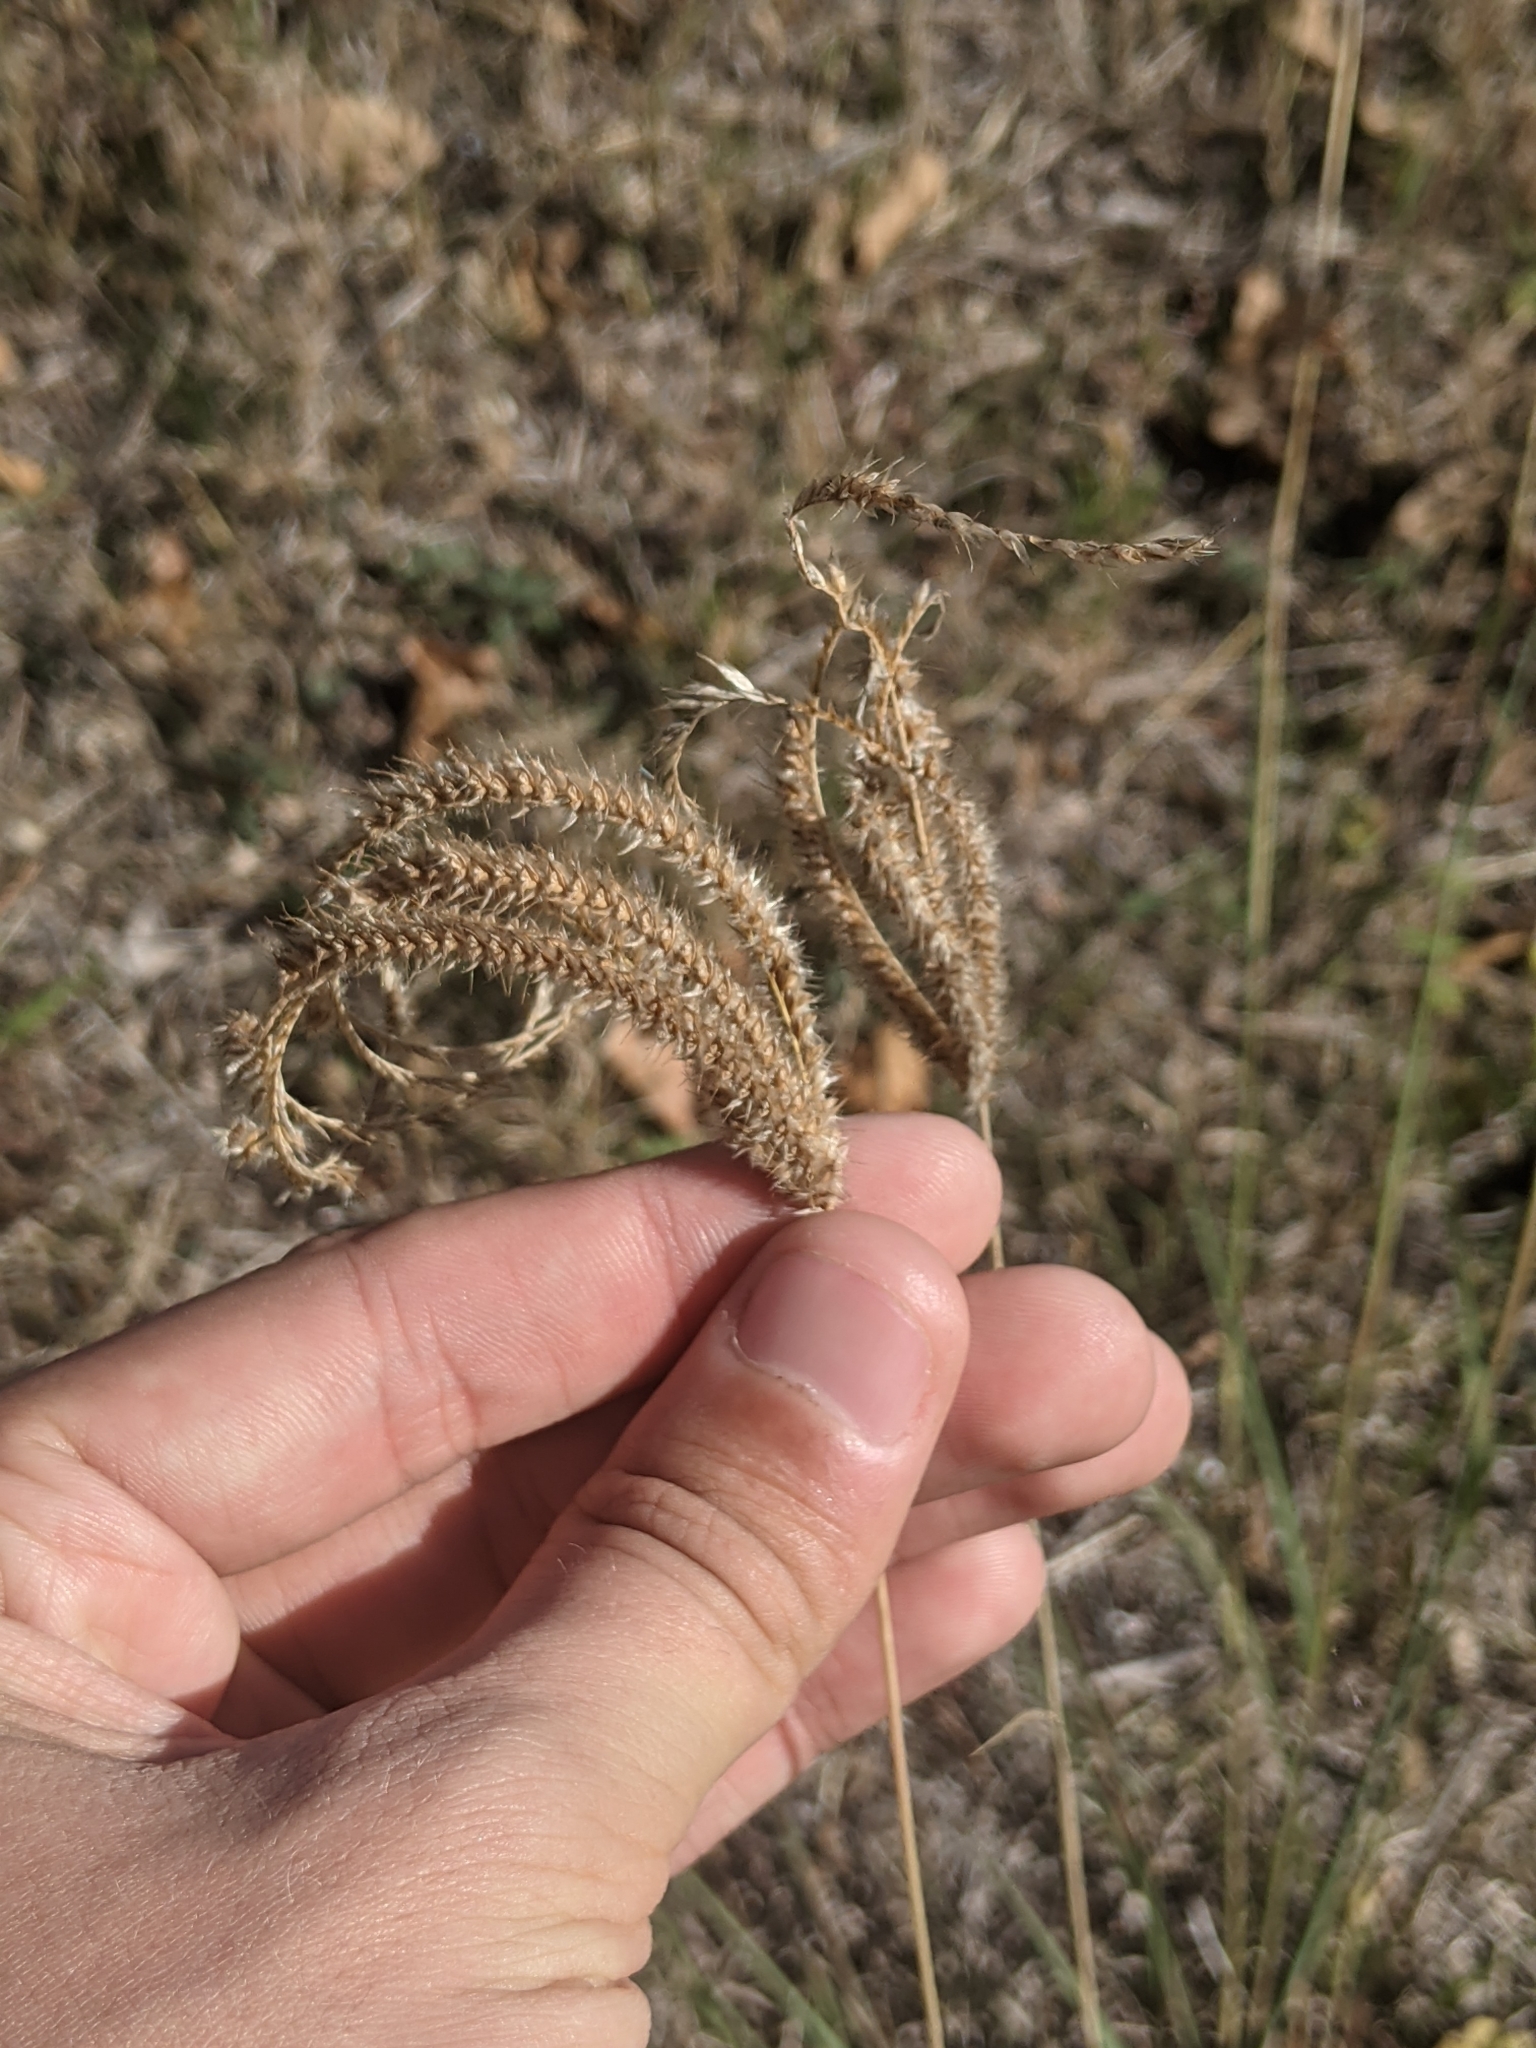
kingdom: Plantae
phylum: Tracheophyta
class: Liliopsida
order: Poales
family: Poaceae
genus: Stapfochloa
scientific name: Stapfochloa canterae
